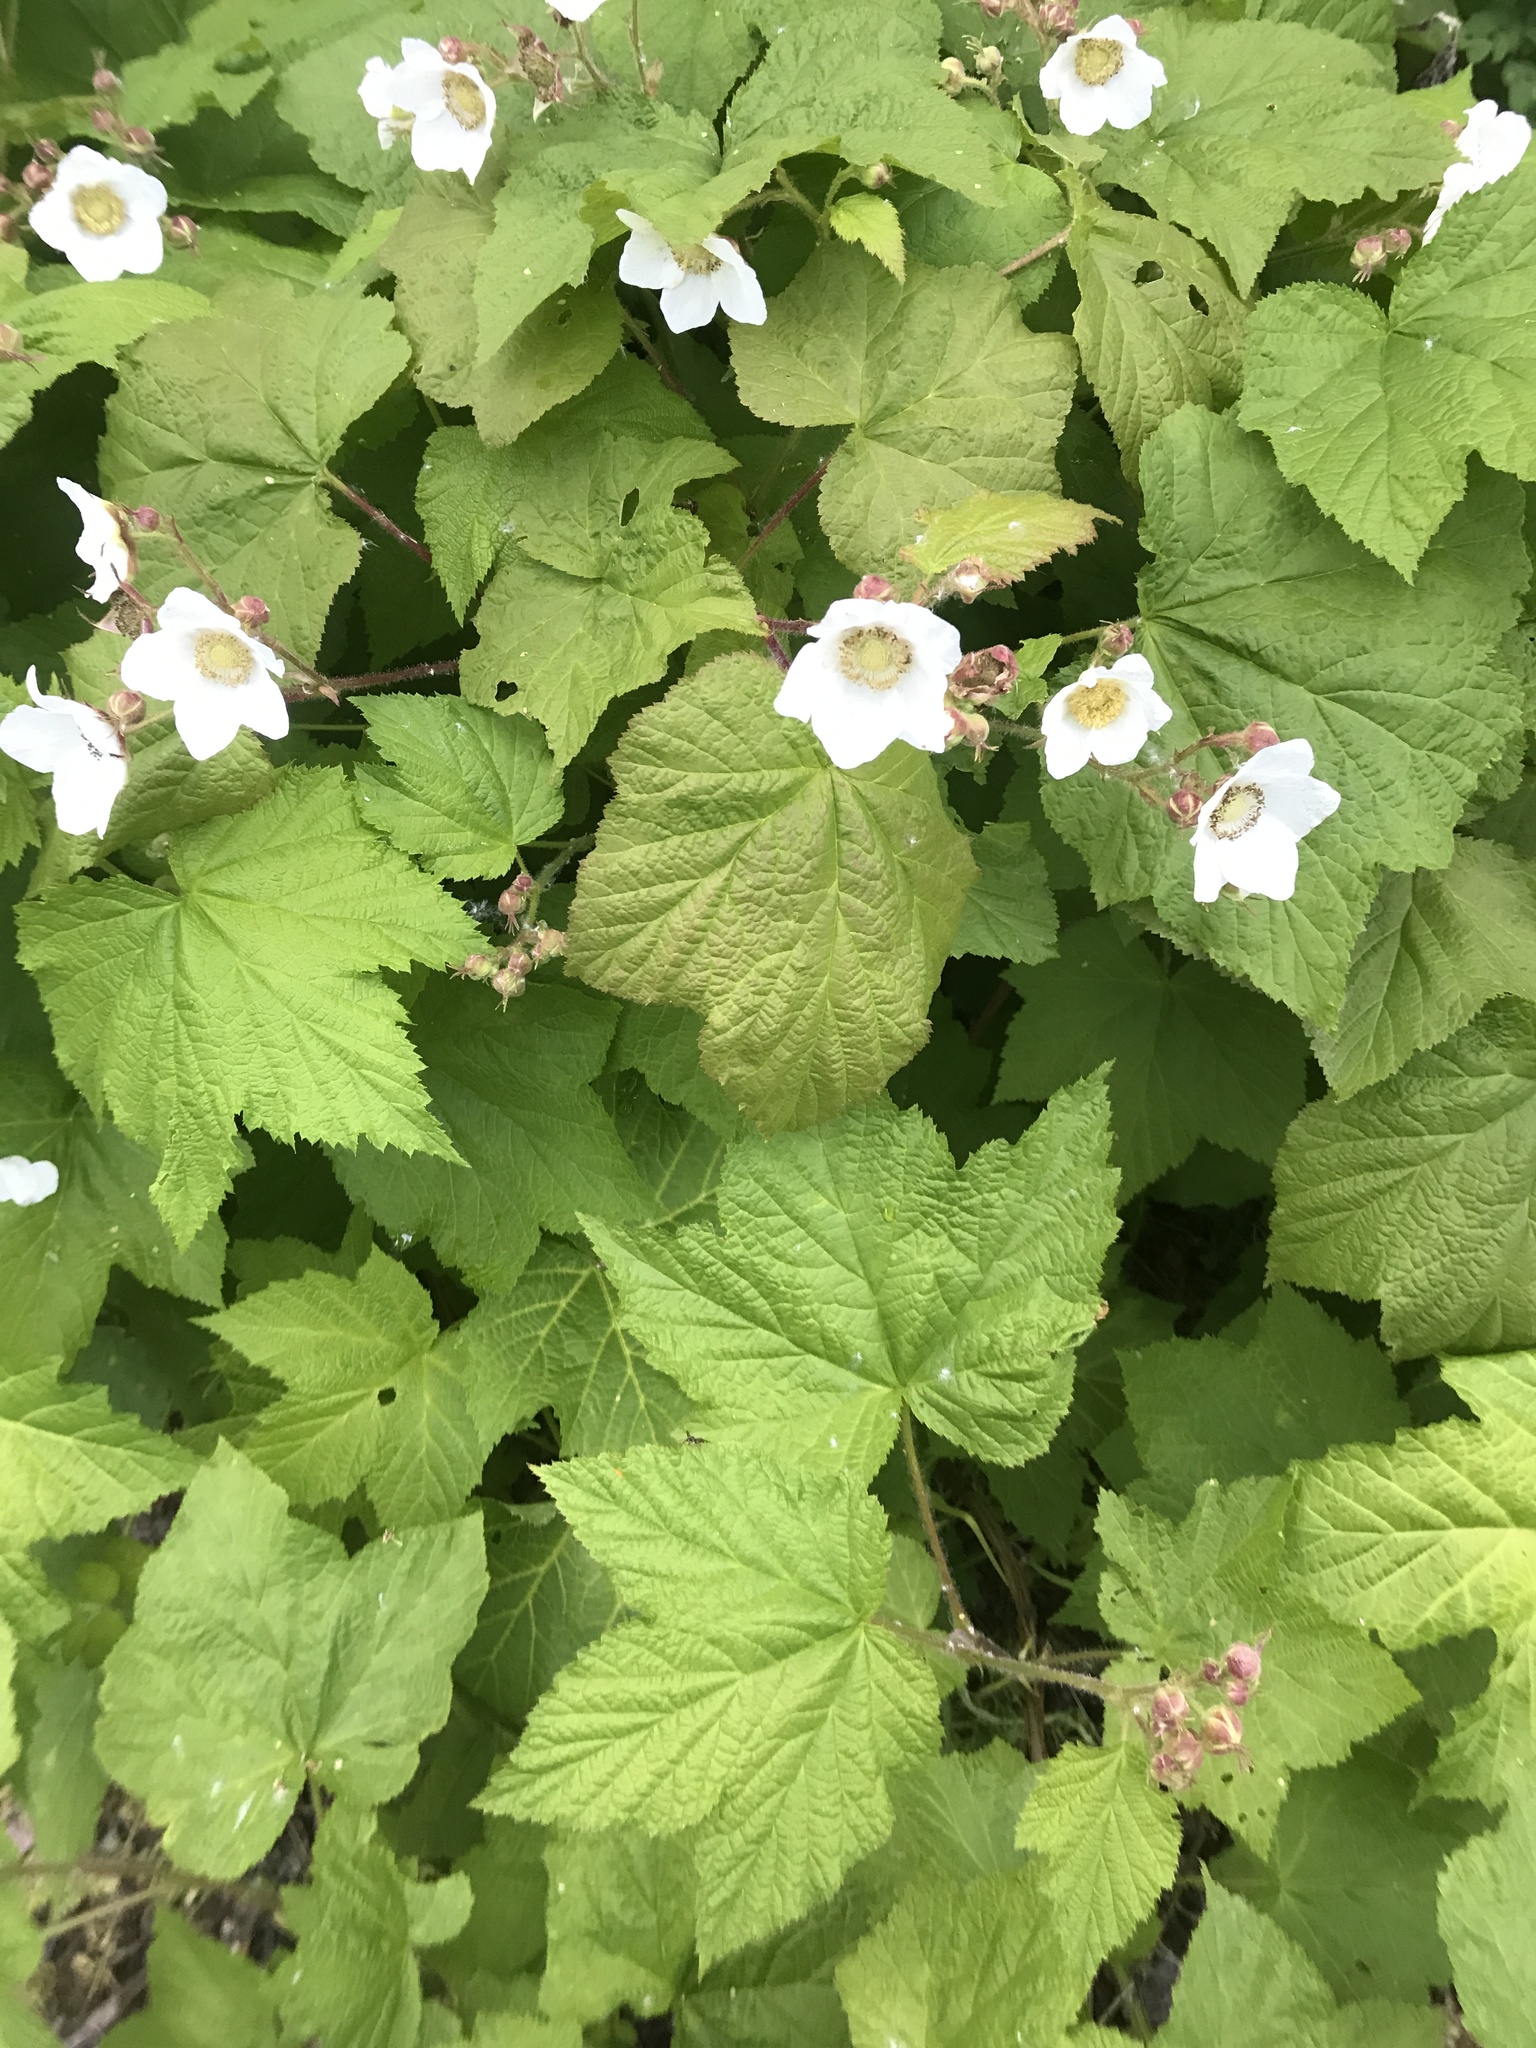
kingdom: Plantae
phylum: Tracheophyta
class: Magnoliopsida
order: Rosales
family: Rosaceae
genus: Rubus
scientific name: Rubus parviflorus
